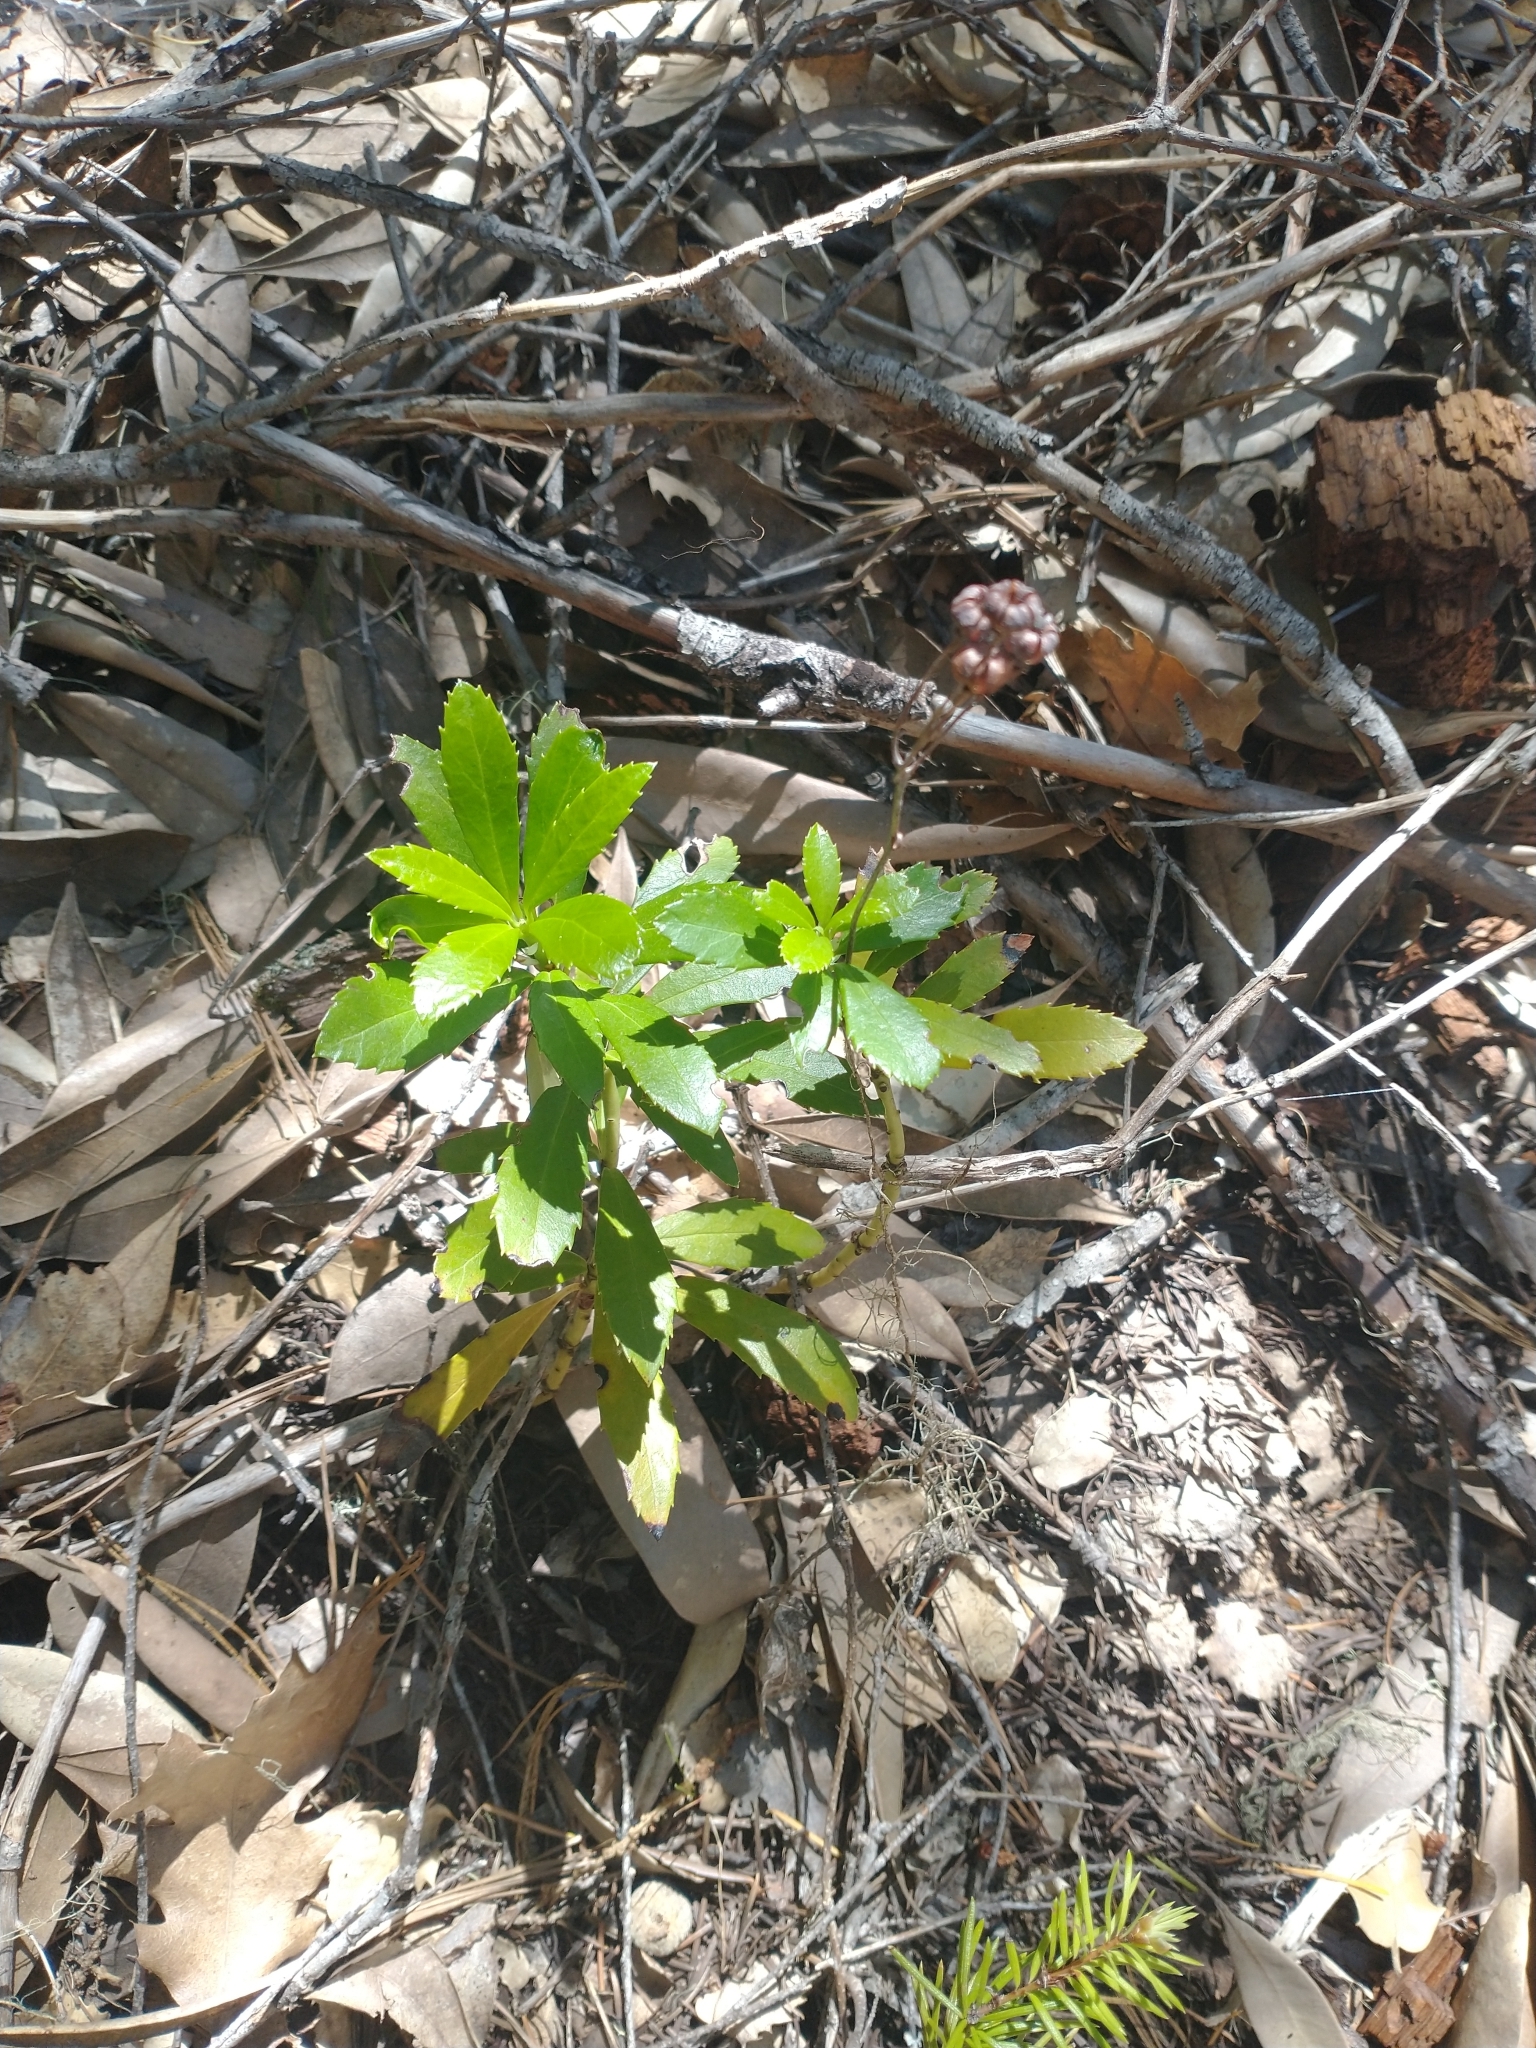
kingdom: Plantae
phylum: Tracheophyta
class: Magnoliopsida
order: Ericales
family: Ericaceae
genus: Chimaphila
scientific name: Chimaphila umbellata
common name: Pipsissewa
